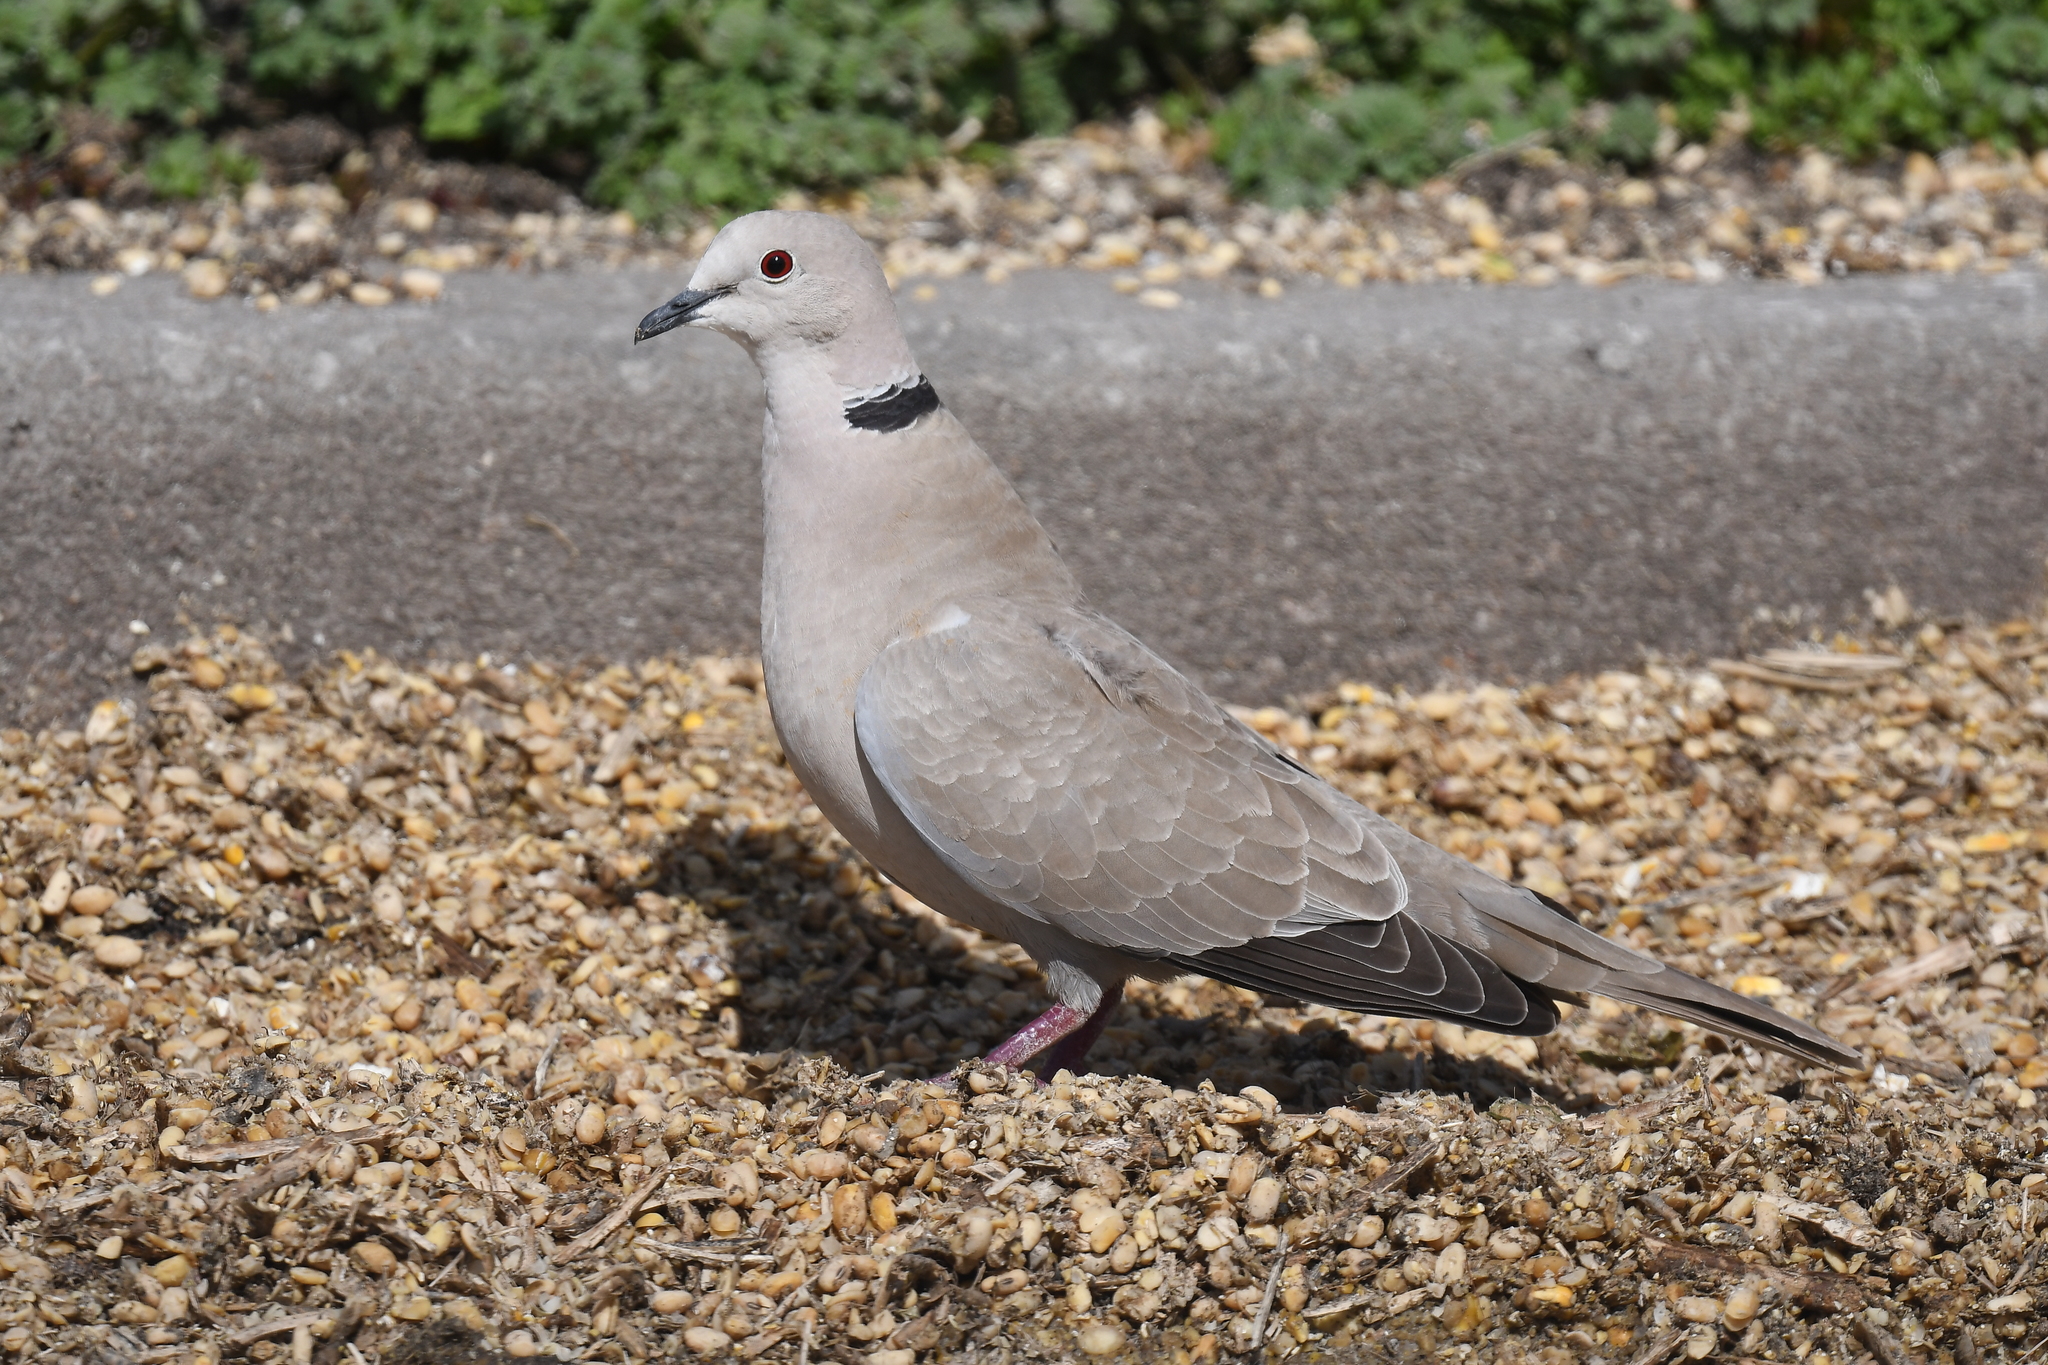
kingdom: Animalia
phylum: Chordata
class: Aves
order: Columbiformes
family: Columbidae
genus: Streptopelia
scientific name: Streptopelia decaocto
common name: Eurasian collared dove
